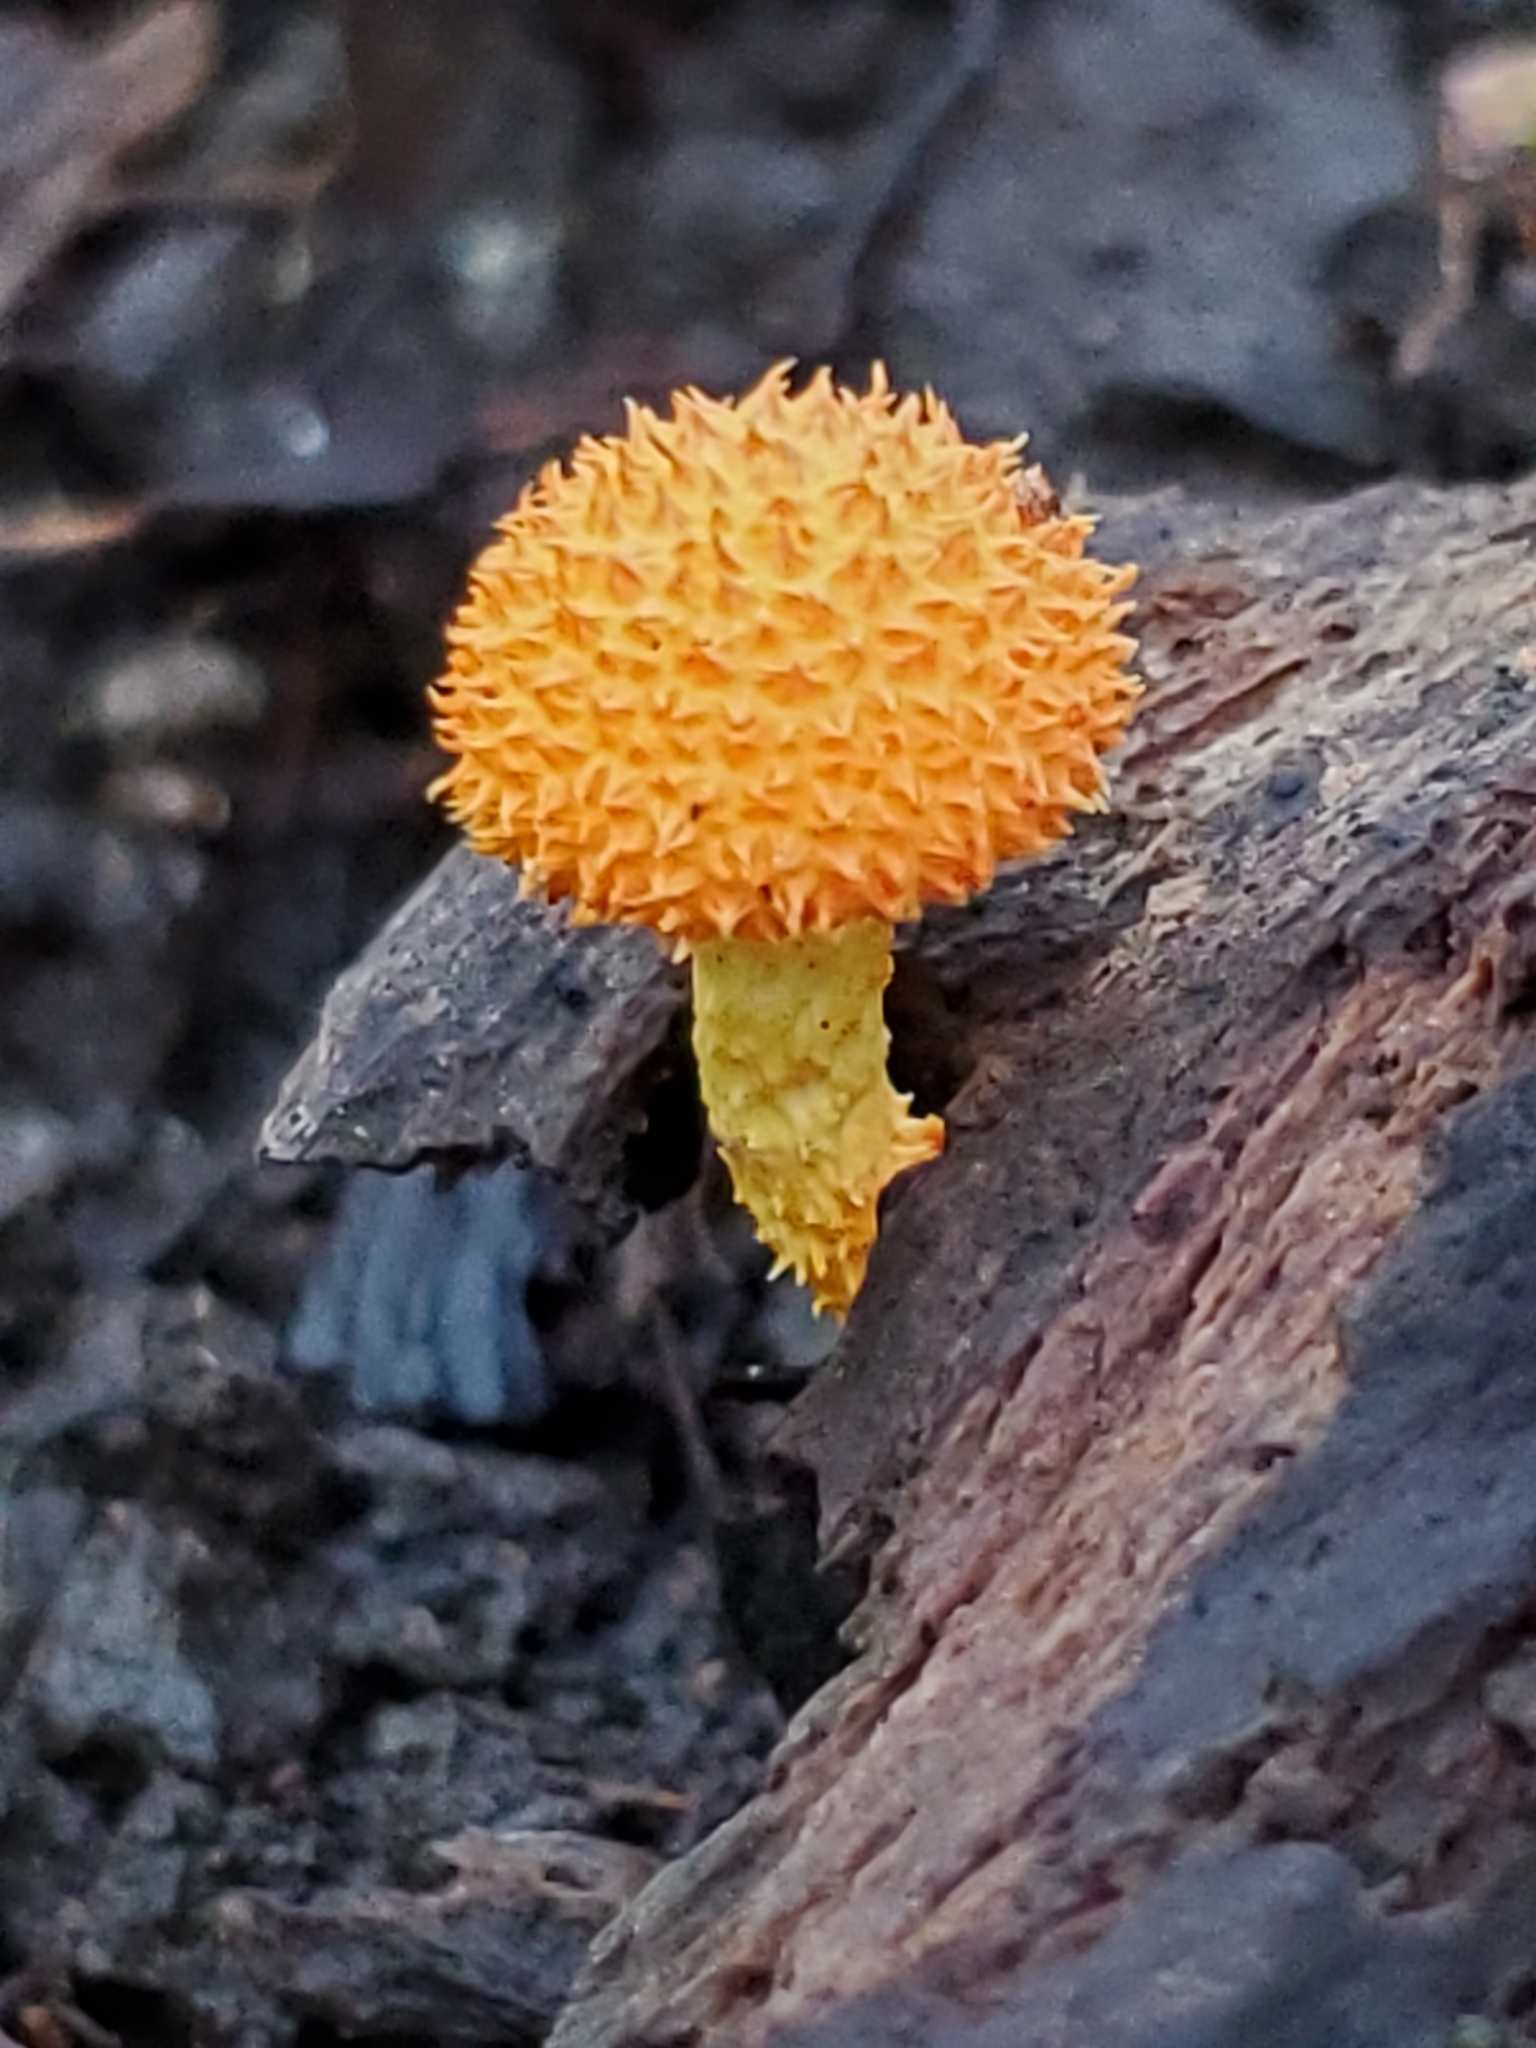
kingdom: Fungi
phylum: Basidiomycota
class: Agaricomycetes
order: Agaricales
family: Physalacriaceae
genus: Cyptotrama
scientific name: Cyptotrama asprata
